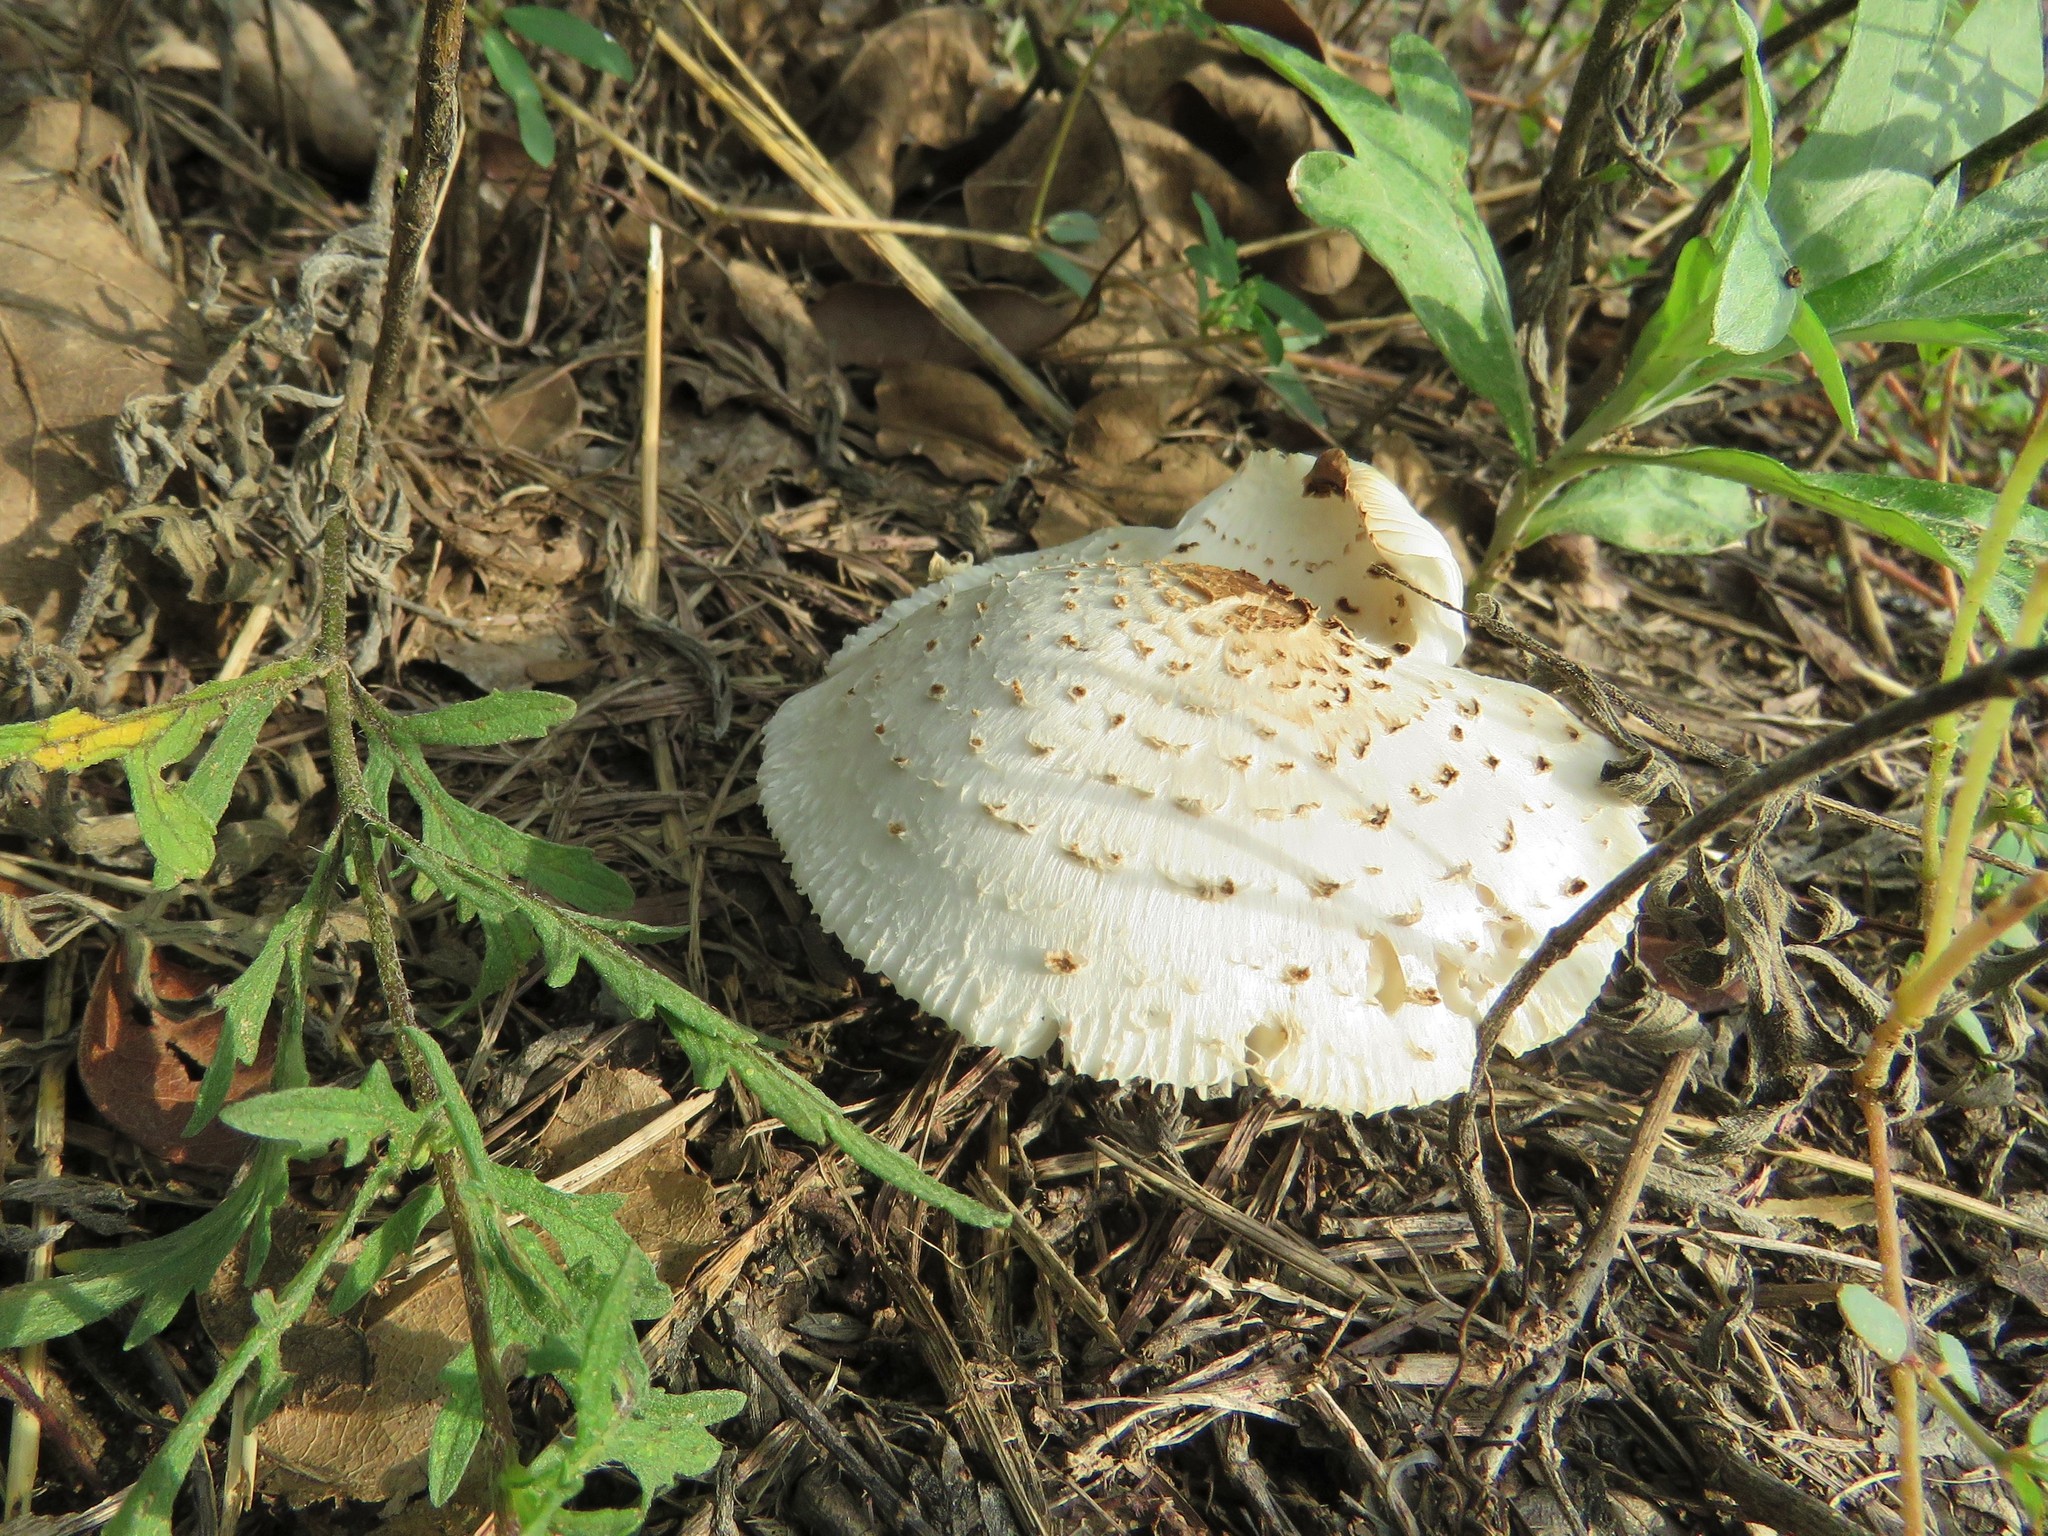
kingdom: Fungi
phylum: Basidiomycota
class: Agaricomycetes
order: Agaricales
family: Agaricaceae
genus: Chlorophyllum
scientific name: Chlorophyllum molybdites
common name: False parasol
